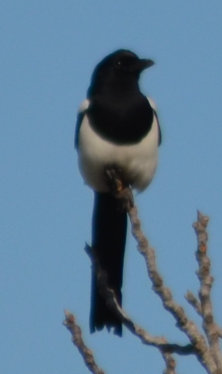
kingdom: Animalia
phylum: Chordata
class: Aves
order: Passeriformes
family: Corvidae
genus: Pica
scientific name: Pica pica
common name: Eurasian magpie
